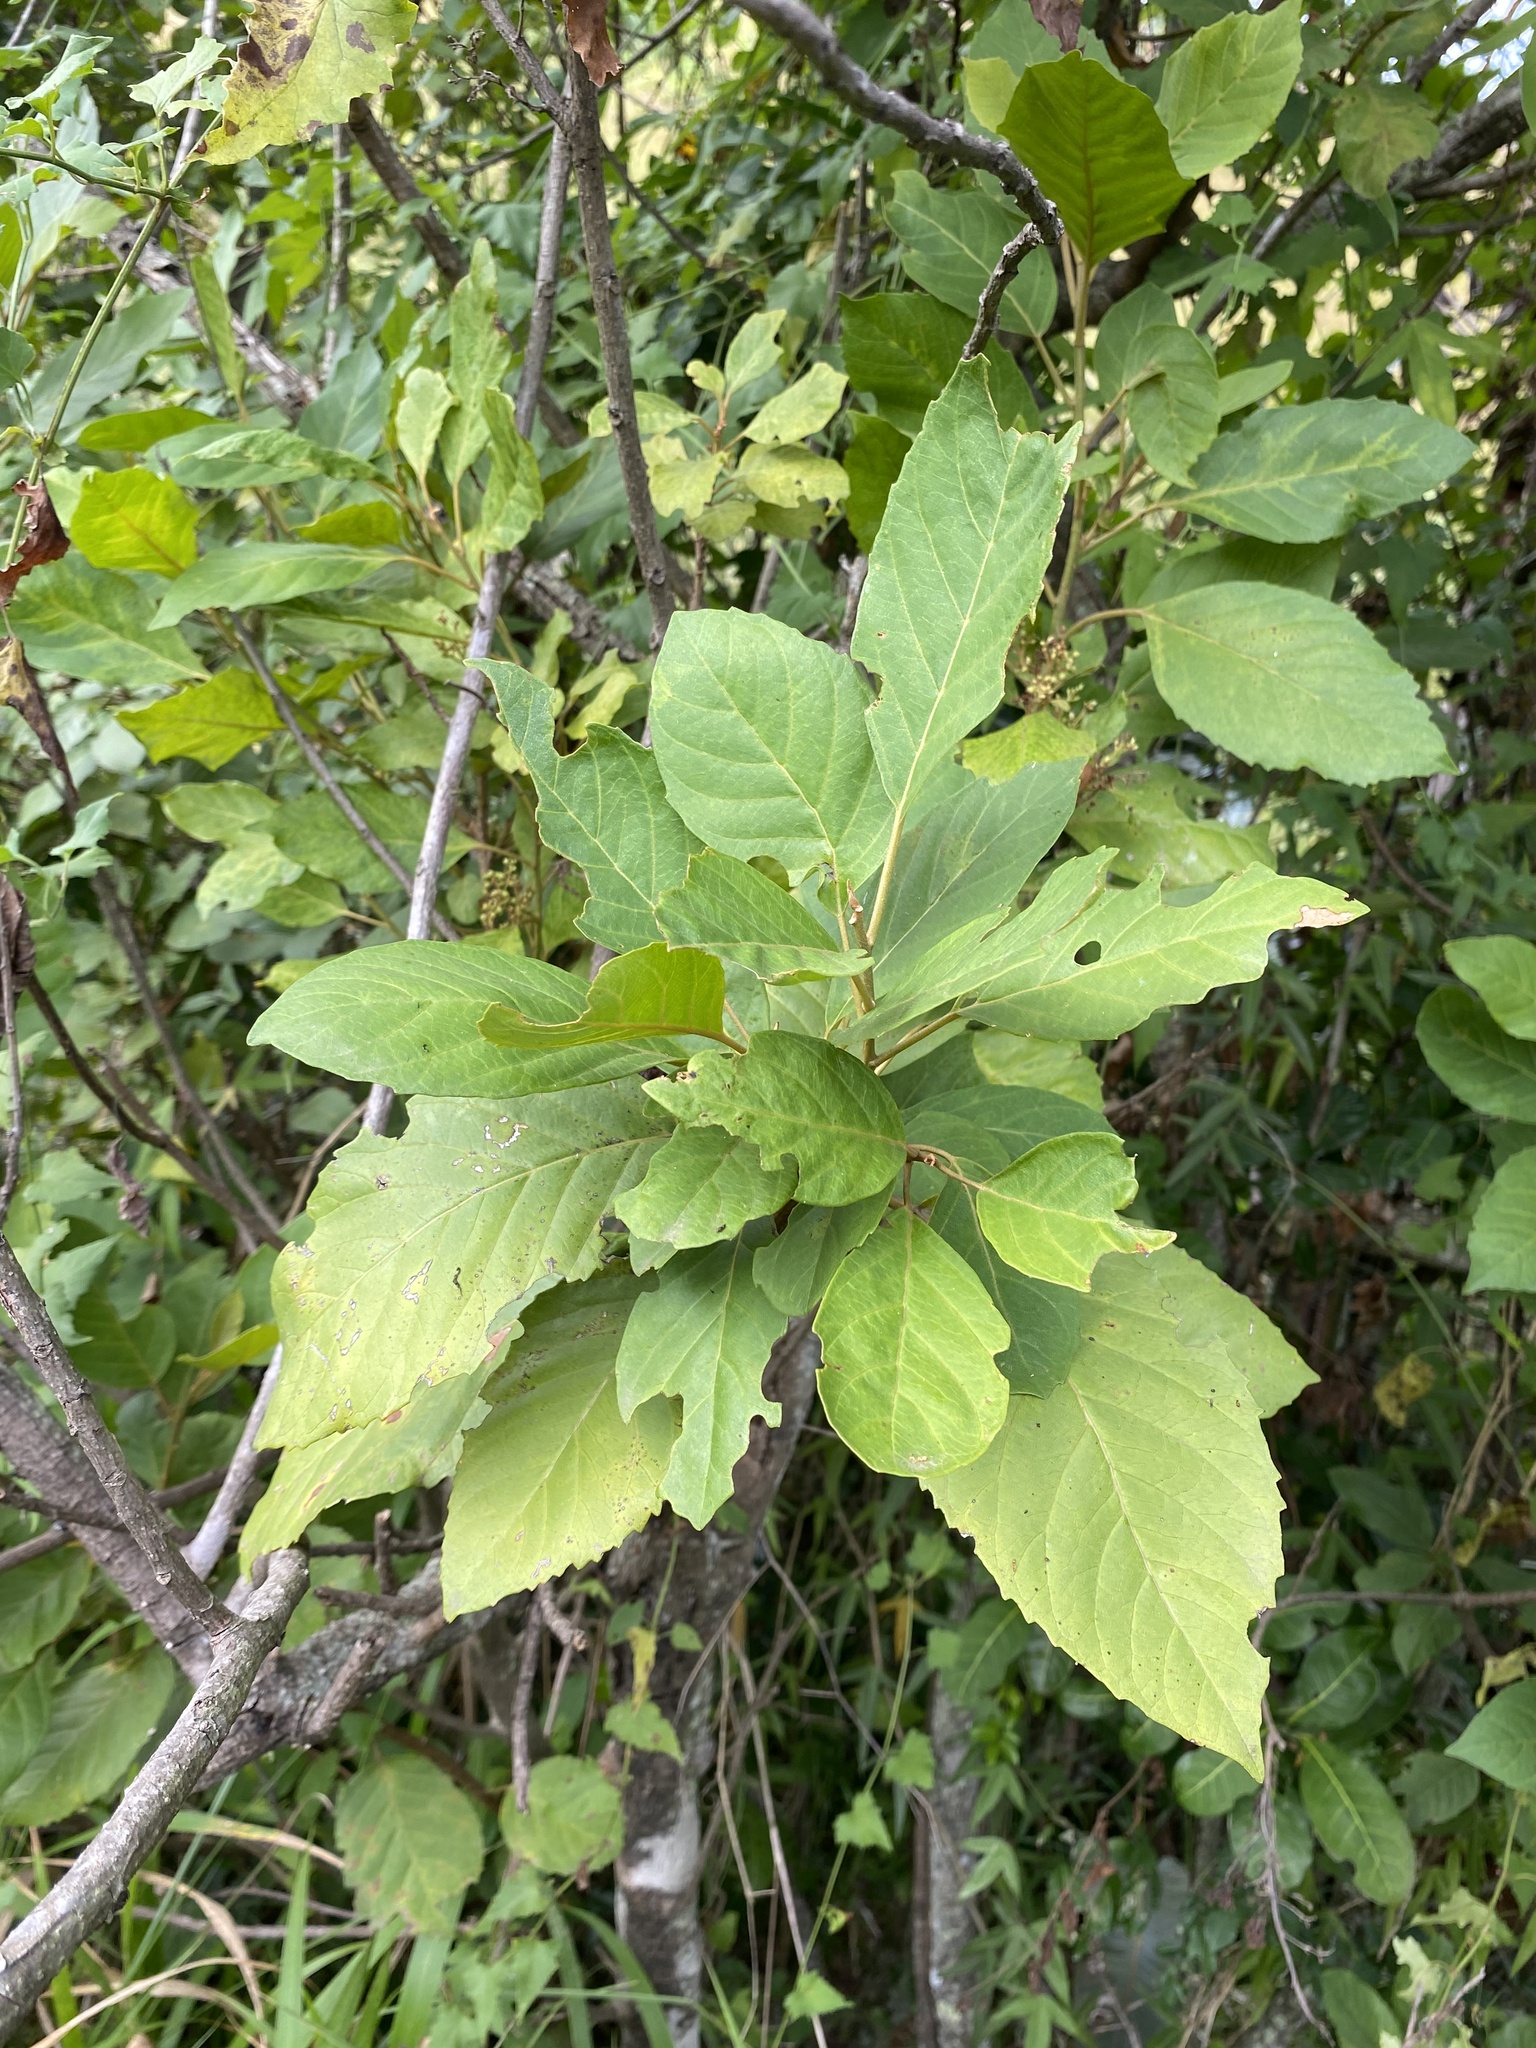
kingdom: Plantae
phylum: Tracheophyta
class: Magnoliopsida
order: Ericales
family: Primulaceae
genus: Maesa
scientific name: Maesa lanceolata
